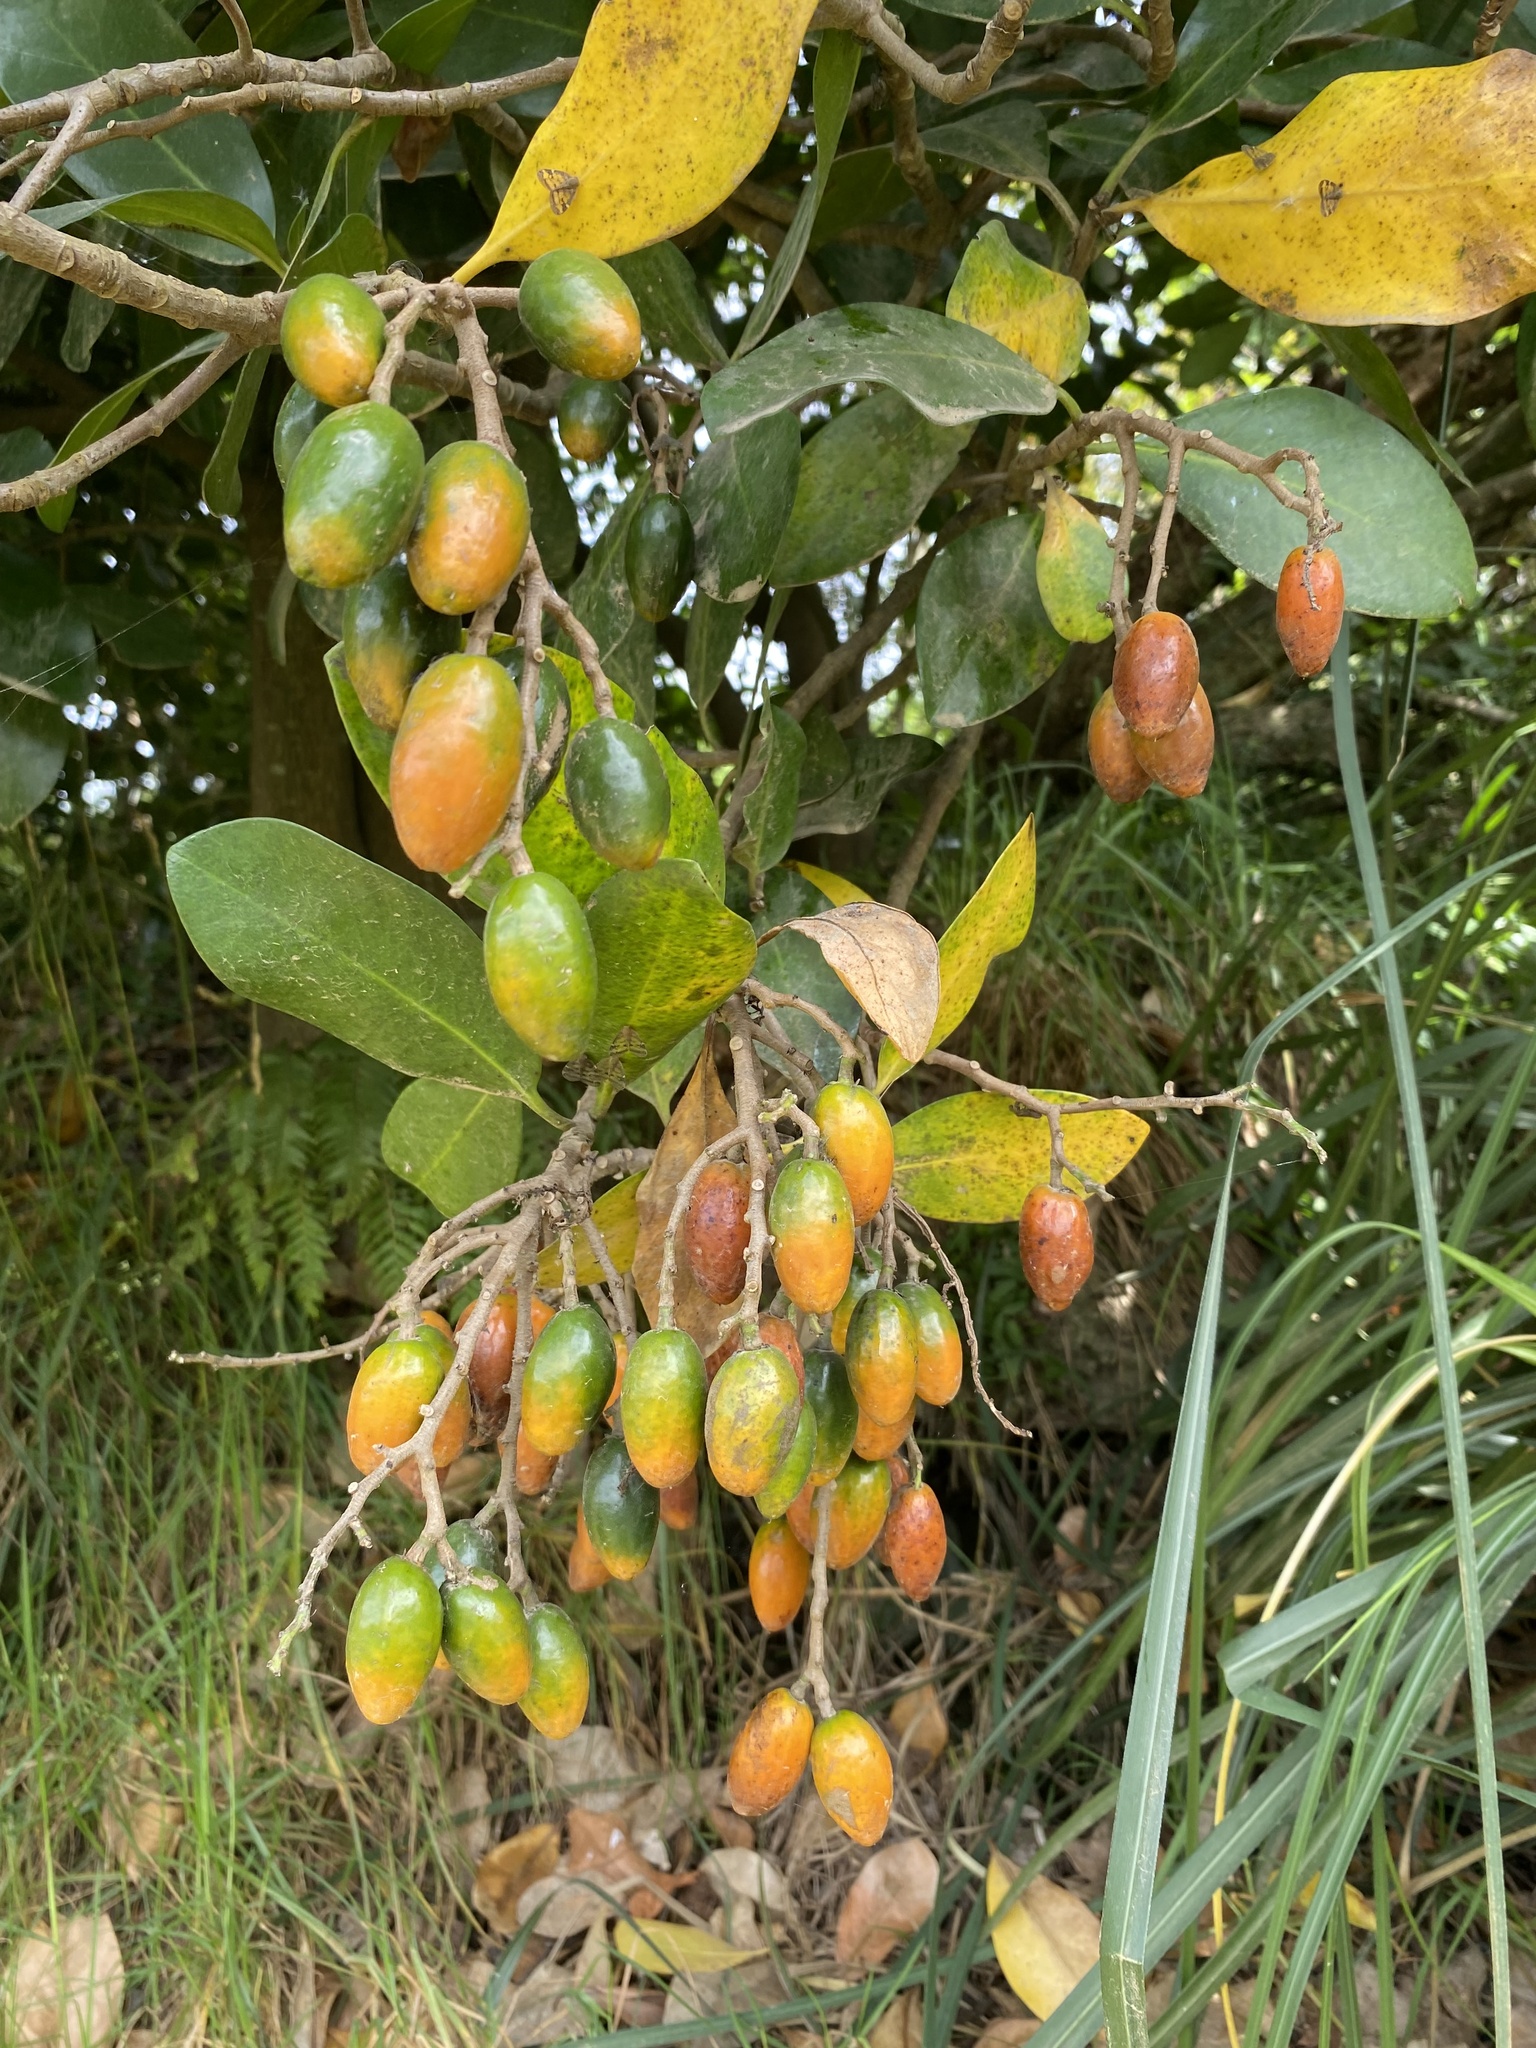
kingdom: Plantae
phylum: Tracheophyta
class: Magnoliopsida
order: Cucurbitales
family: Corynocarpaceae
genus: Corynocarpus
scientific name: Corynocarpus laevigatus
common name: New zealand laurel
